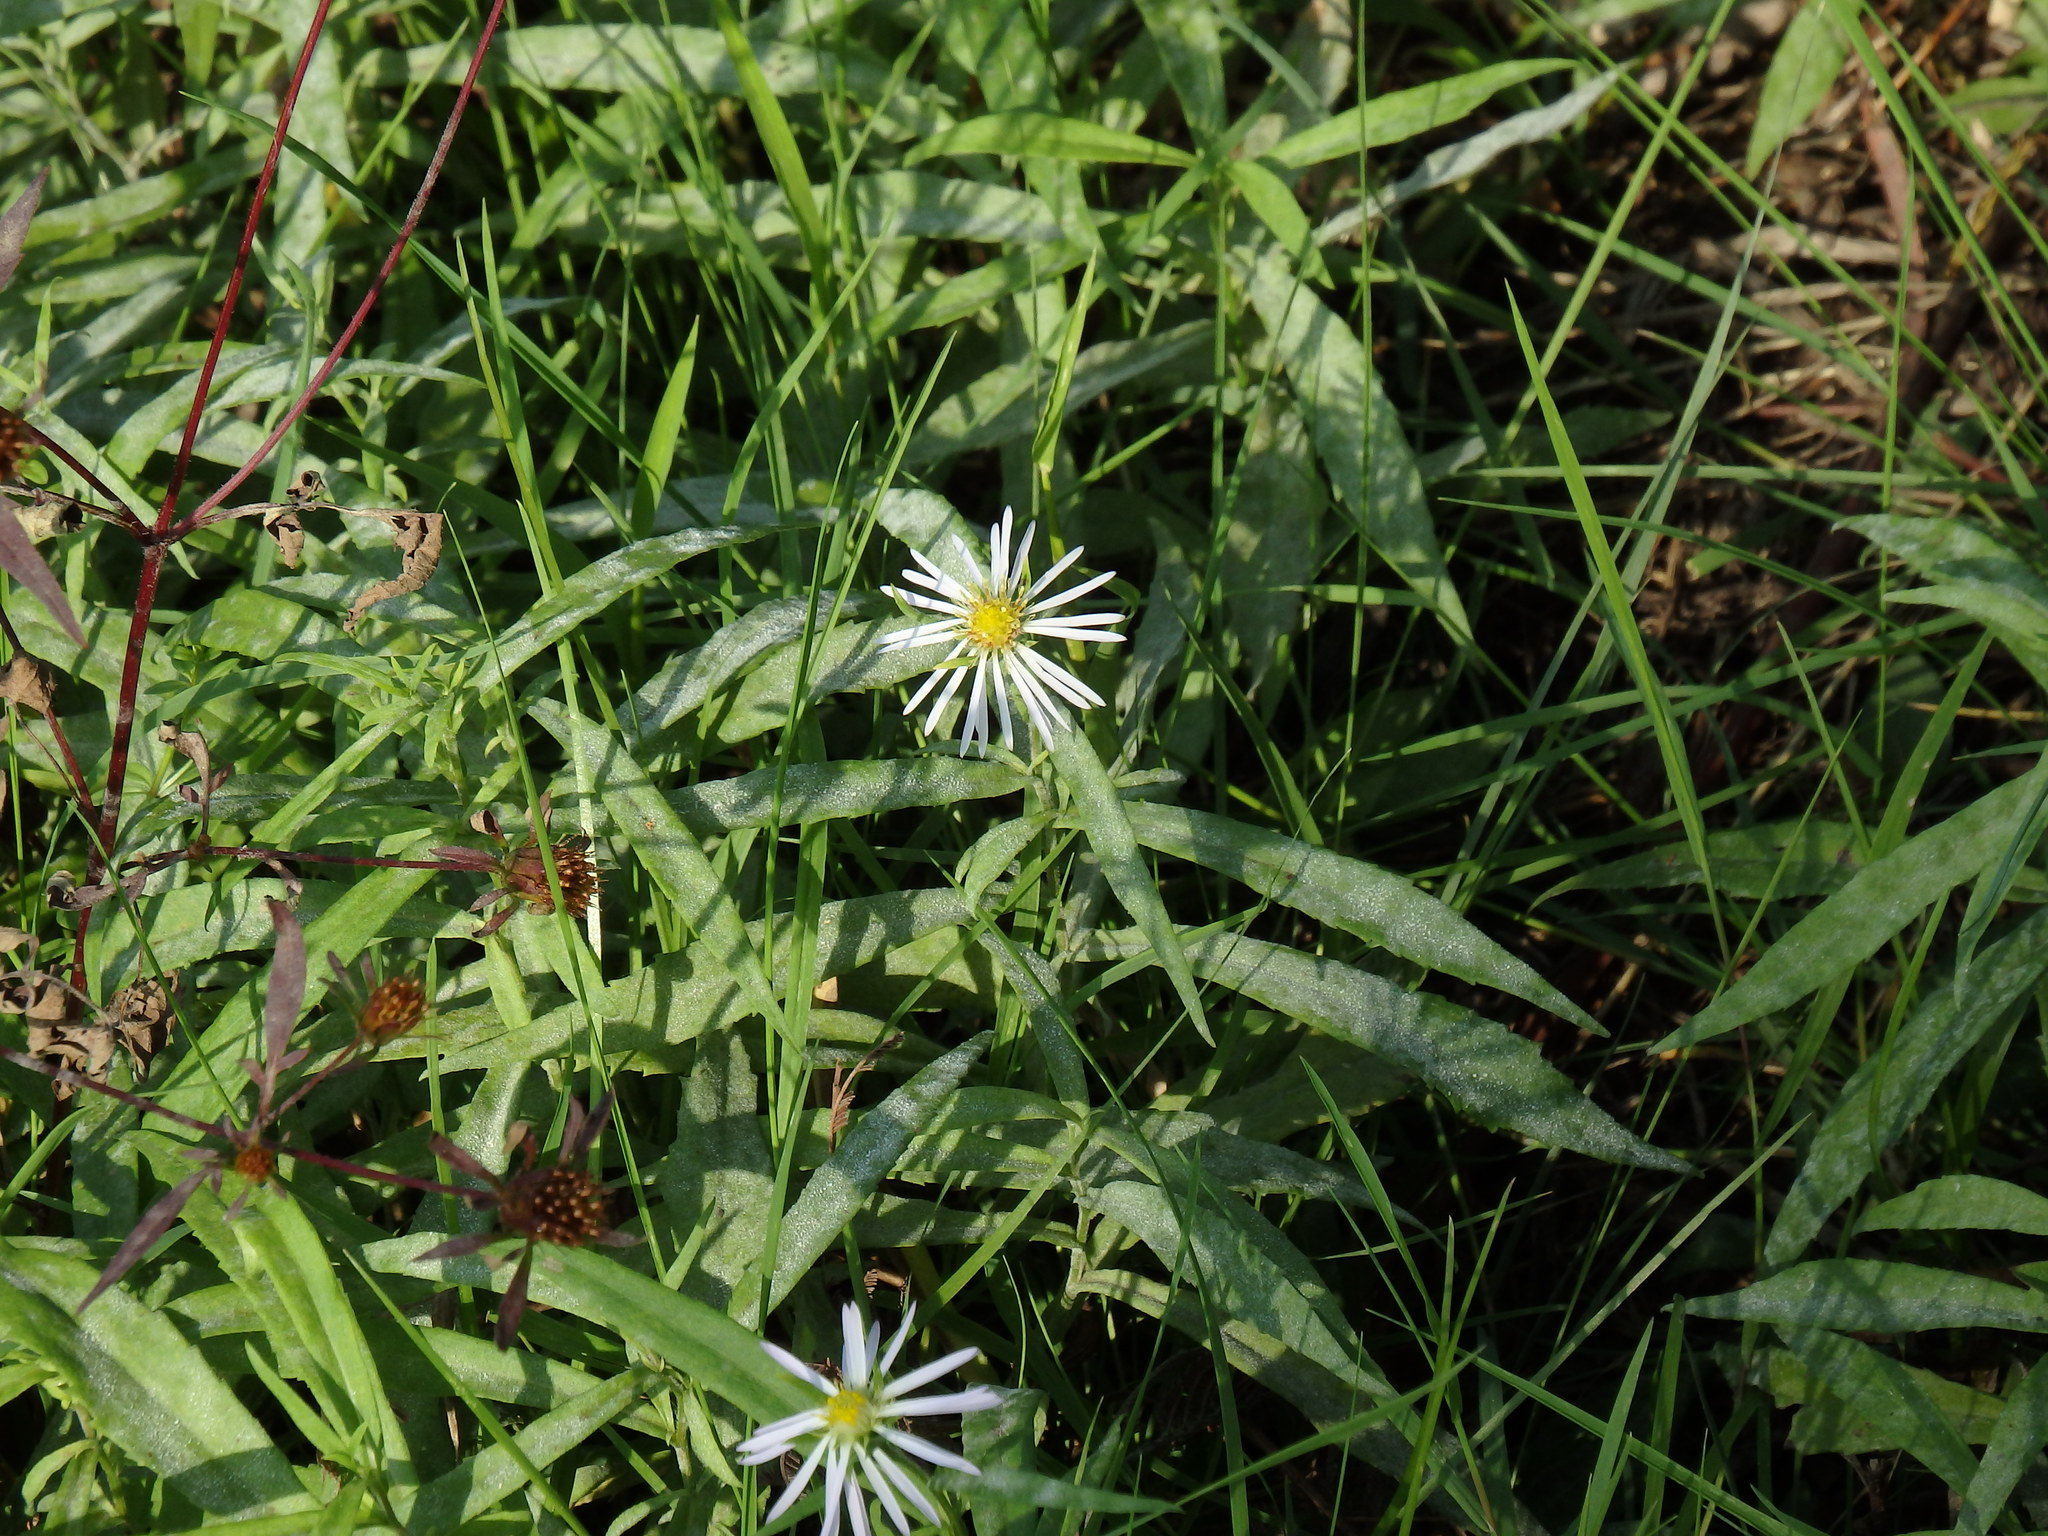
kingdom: Plantae
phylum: Tracheophyta
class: Magnoliopsida
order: Asterales
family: Asteraceae
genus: Symphyotrichum
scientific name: Symphyotrichum lanceolatum
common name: Panicled aster
